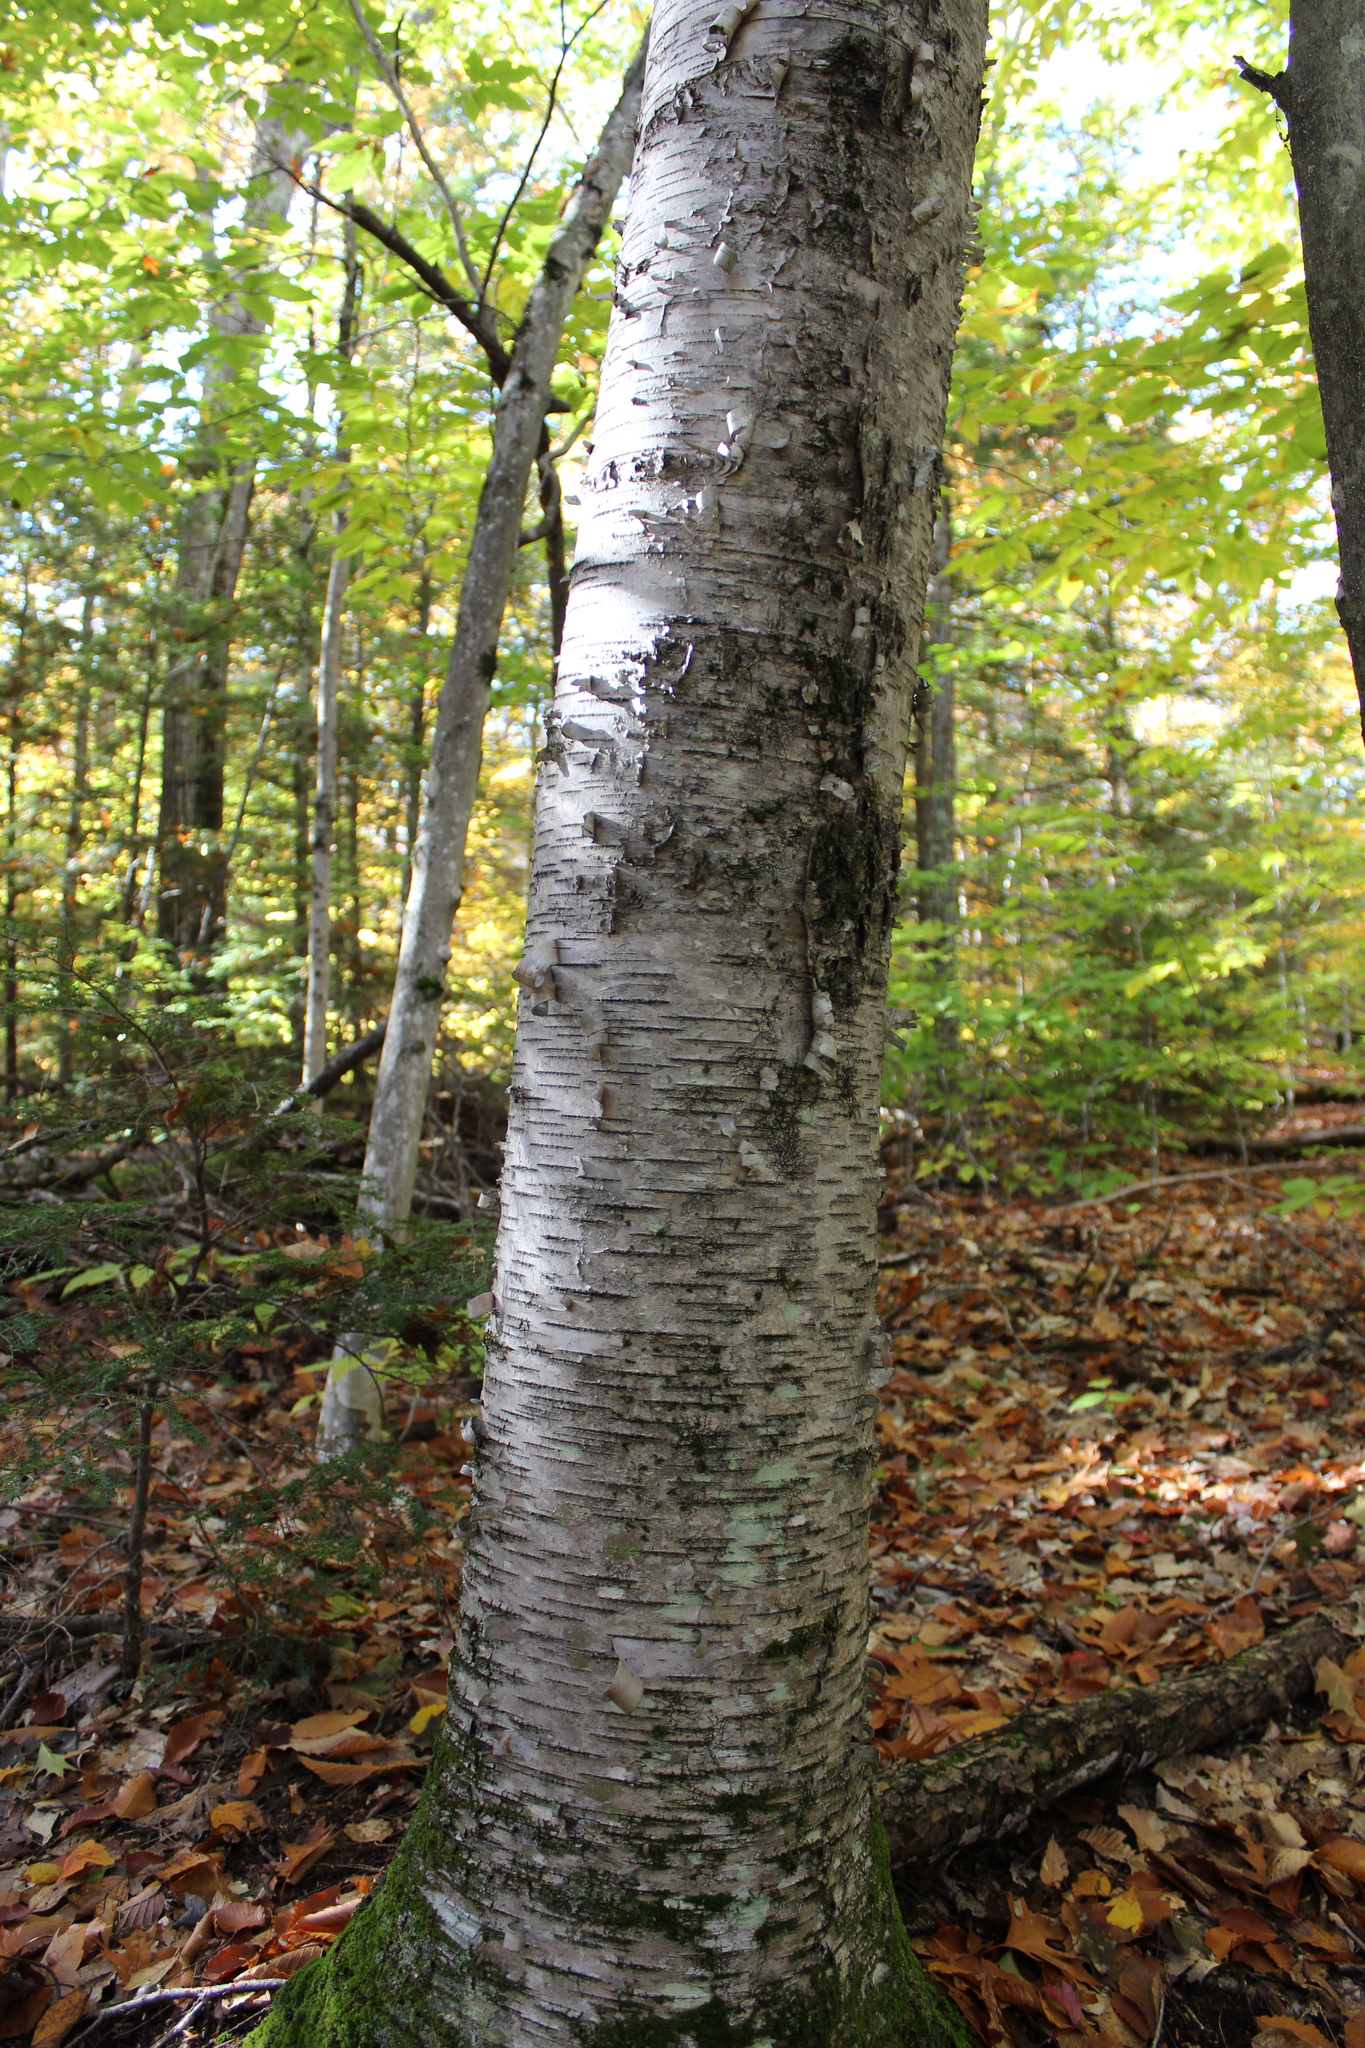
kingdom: Plantae
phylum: Tracheophyta
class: Magnoliopsida
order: Fagales
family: Betulaceae
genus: Betula
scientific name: Betula papyrifera
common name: Paper birch
